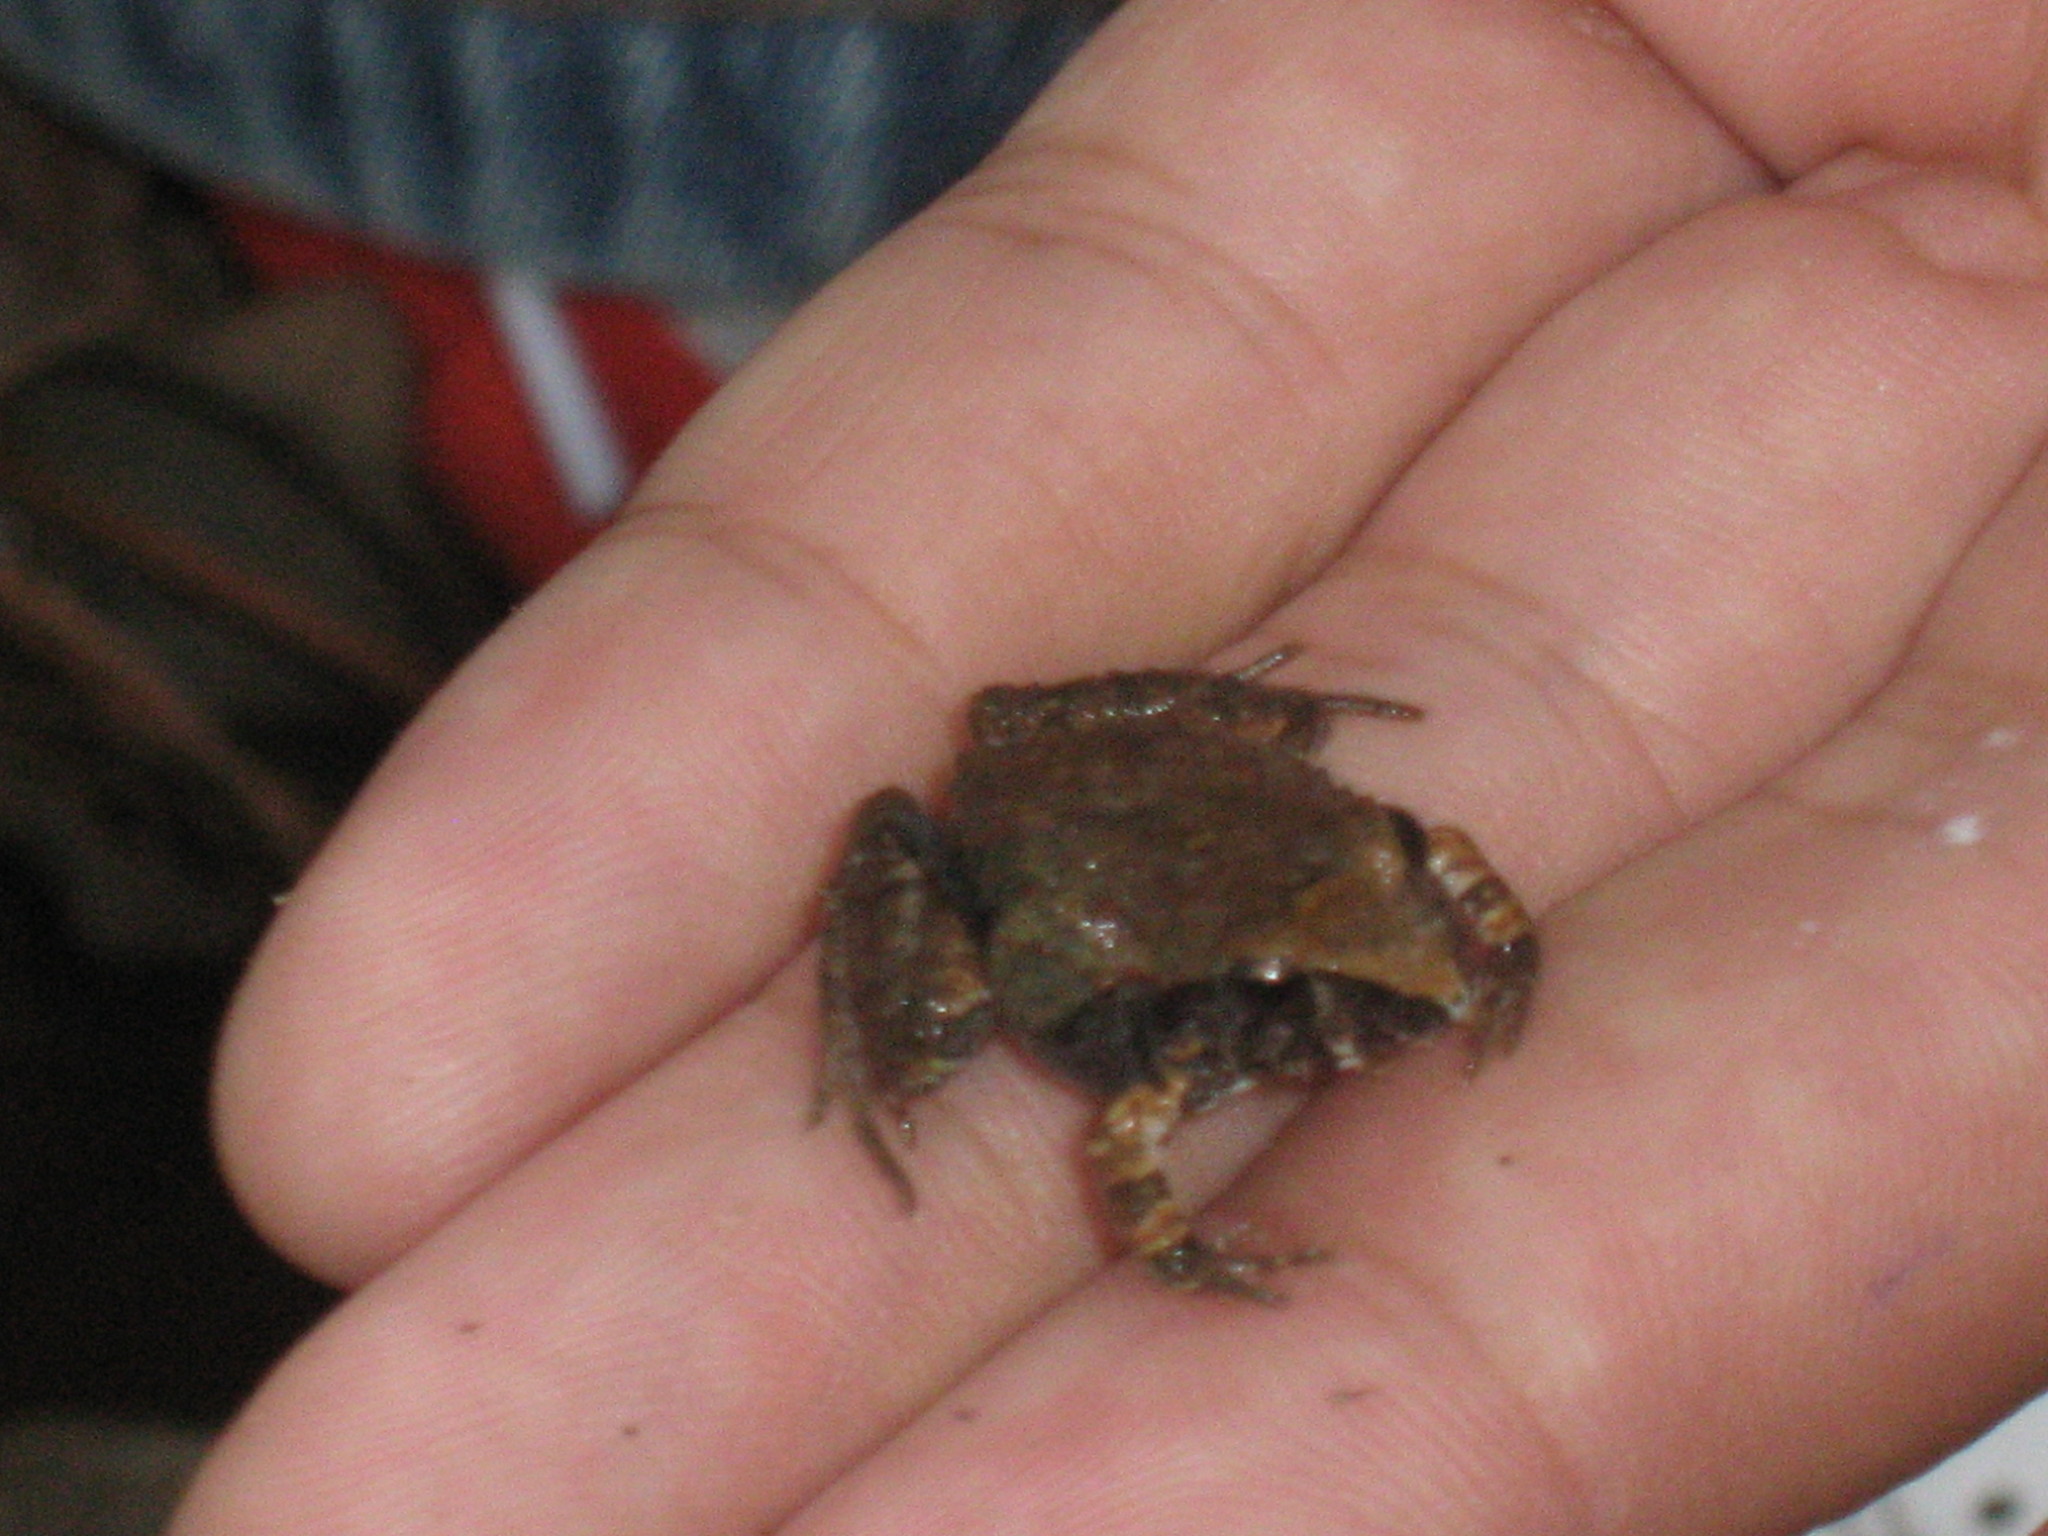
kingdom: Animalia
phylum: Chordata
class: Amphibia
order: Anura
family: Craugastoridae
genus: Craugastor
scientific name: Craugastor occidentalis
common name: Taylor's barking frog
